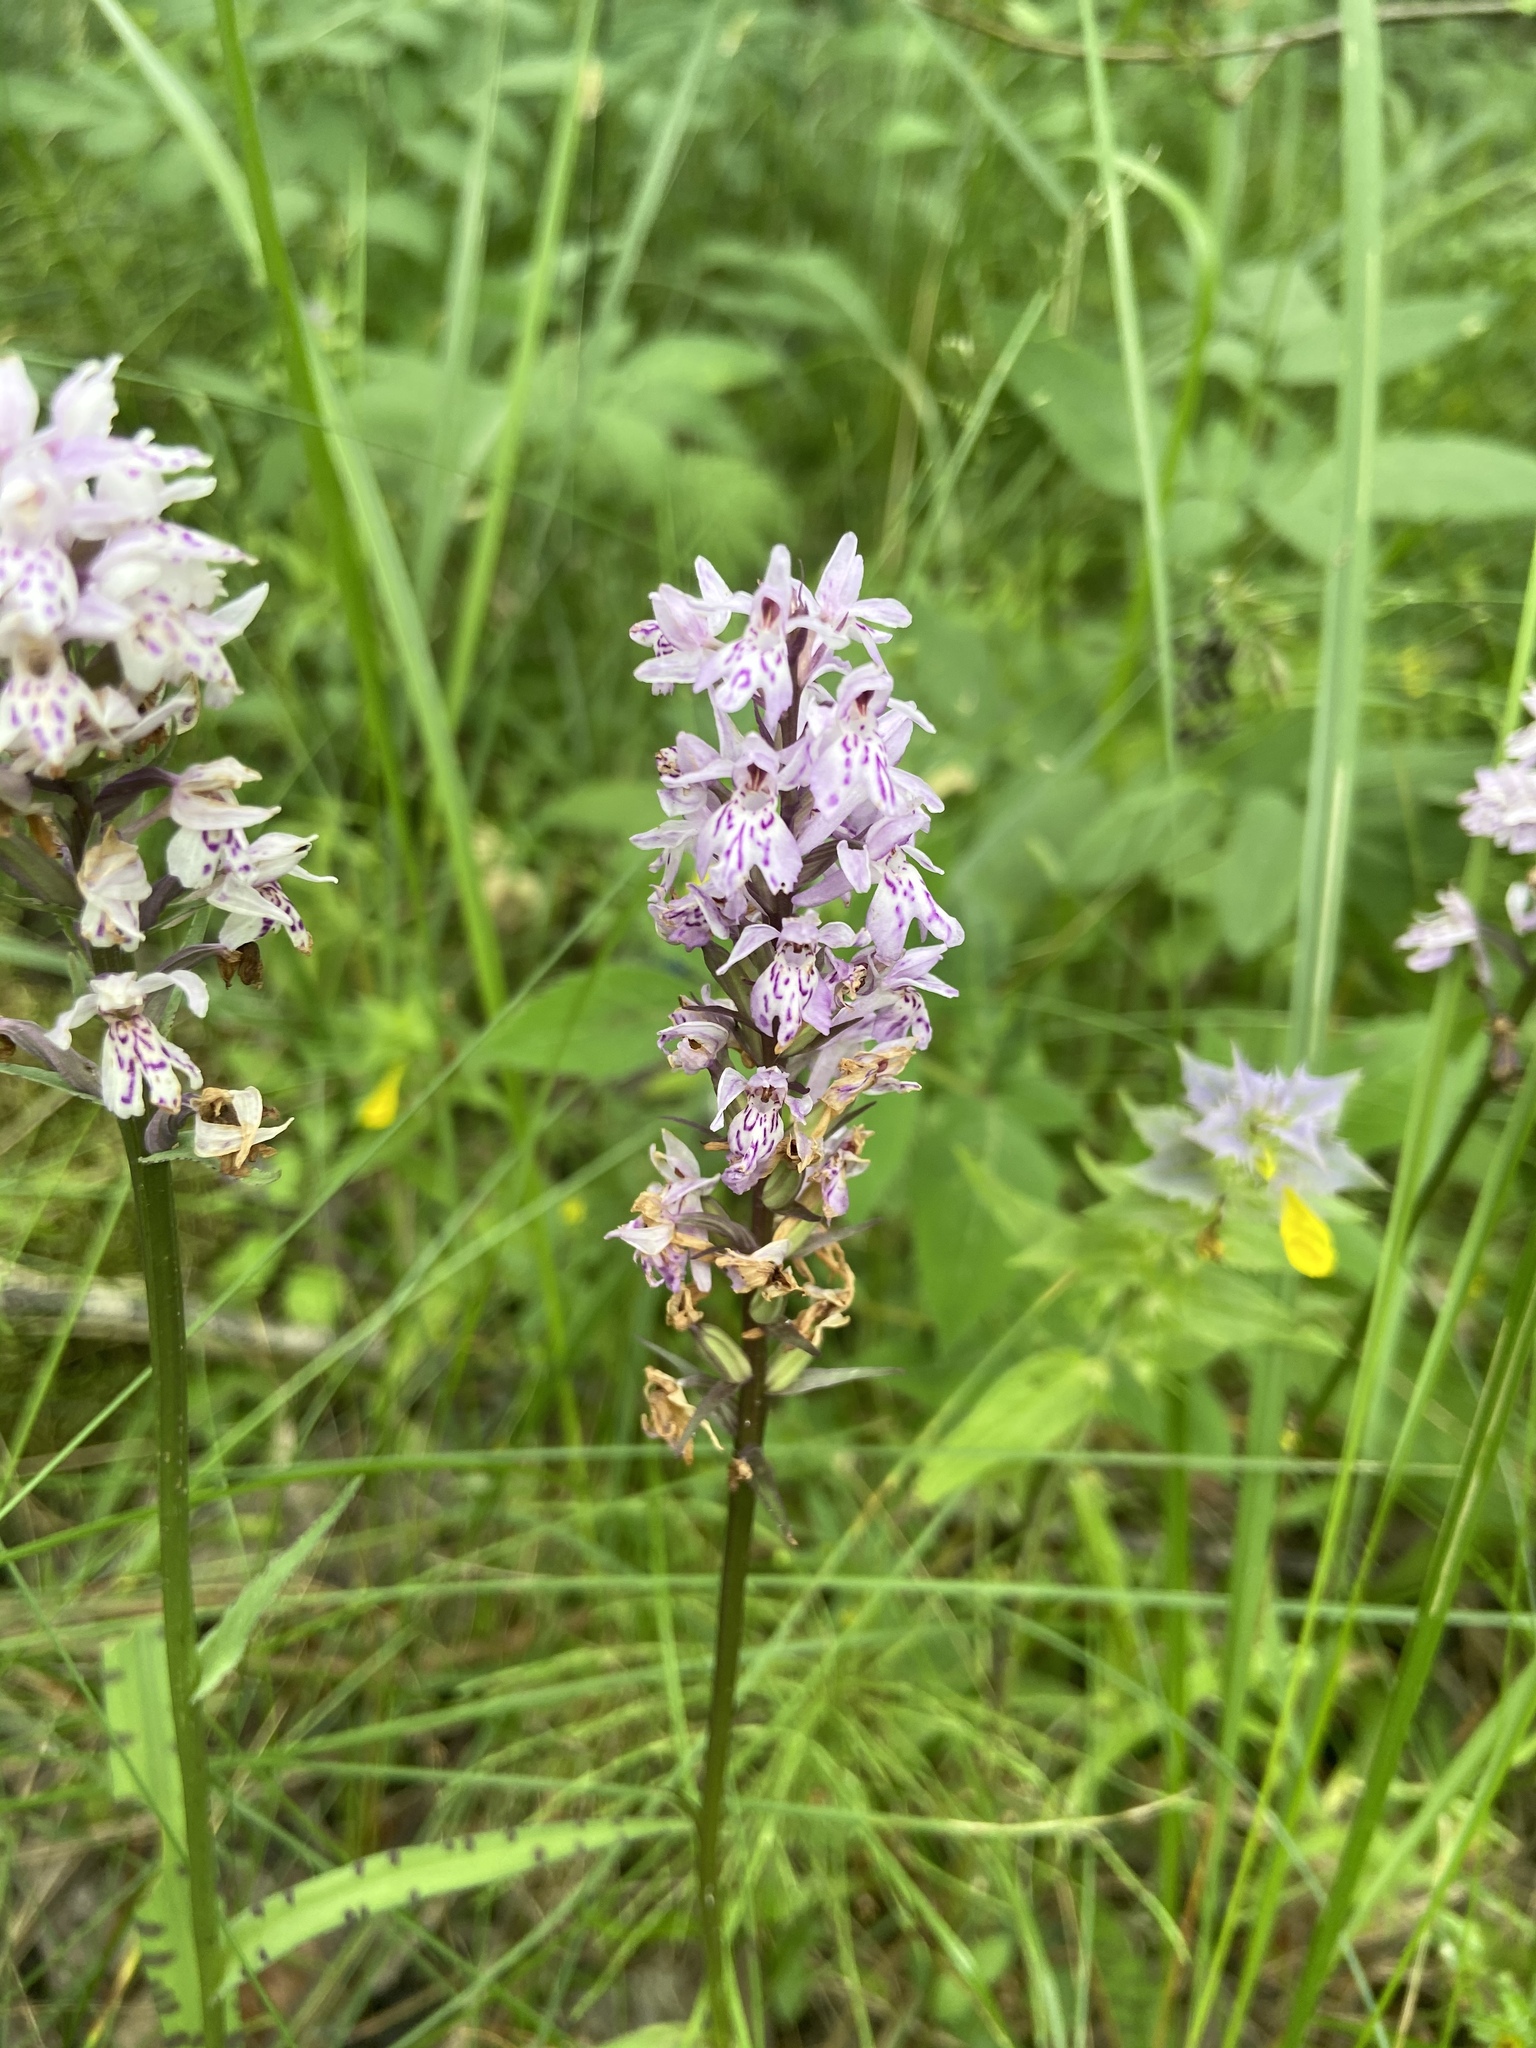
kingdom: Plantae
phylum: Tracheophyta
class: Liliopsida
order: Asparagales
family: Orchidaceae
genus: Dactylorhiza
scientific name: Dactylorhiza maculata
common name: Heath spotted-orchid
